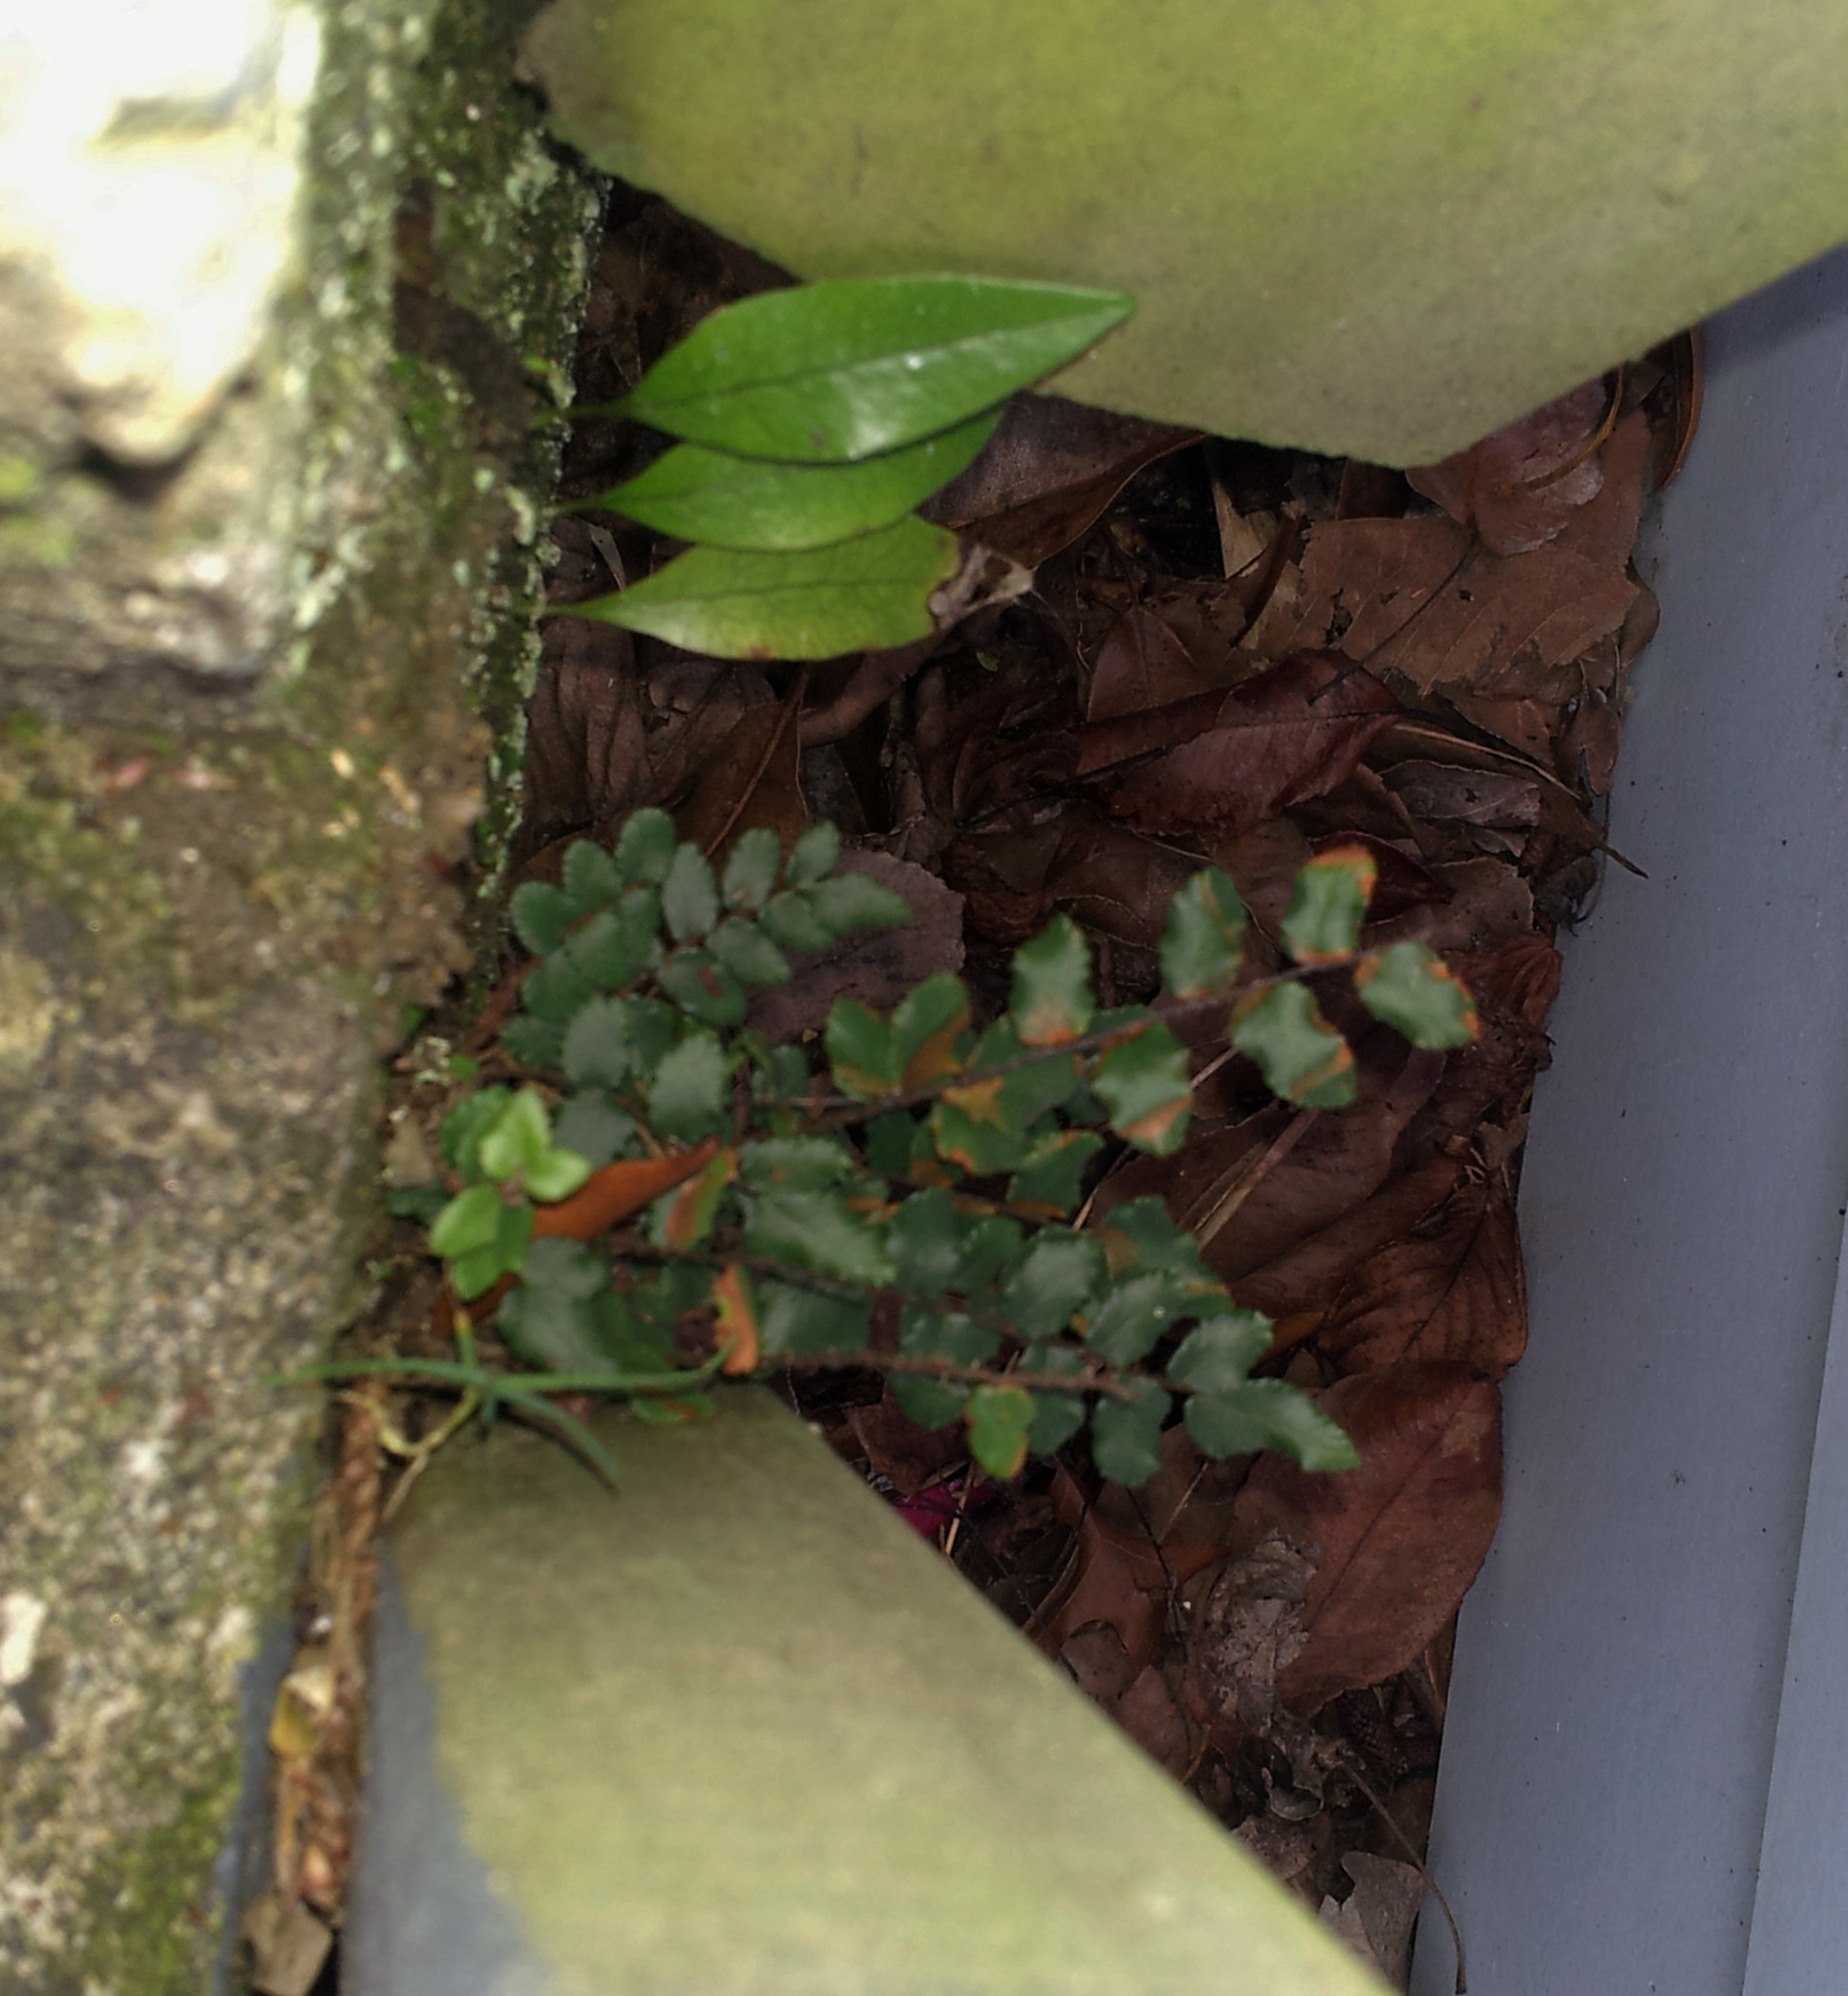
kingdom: Plantae
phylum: Tracheophyta
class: Polypodiopsida
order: Polypodiales
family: Pteridaceae
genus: Pellaea
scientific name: Pellaea rotundifolia
